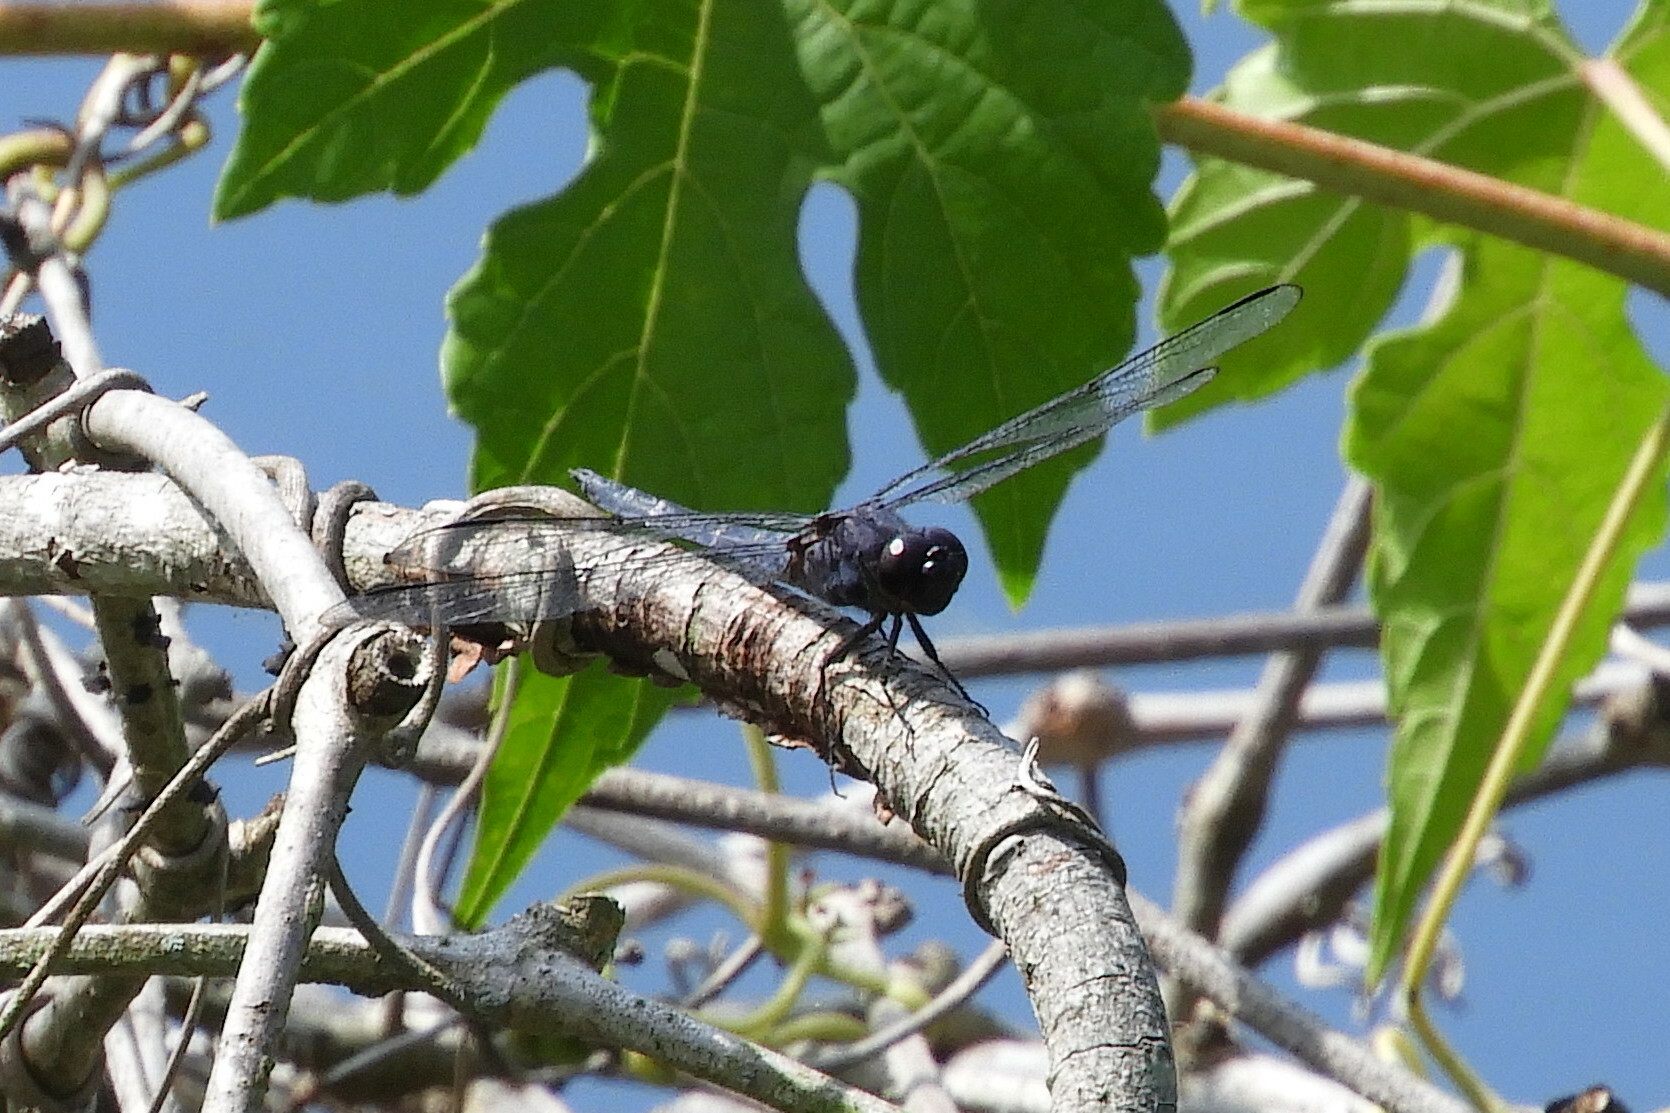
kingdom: Animalia
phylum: Arthropoda
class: Insecta
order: Odonata
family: Libellulidae
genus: Libellula
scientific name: Libellula incesta
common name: Slaty skimmer
